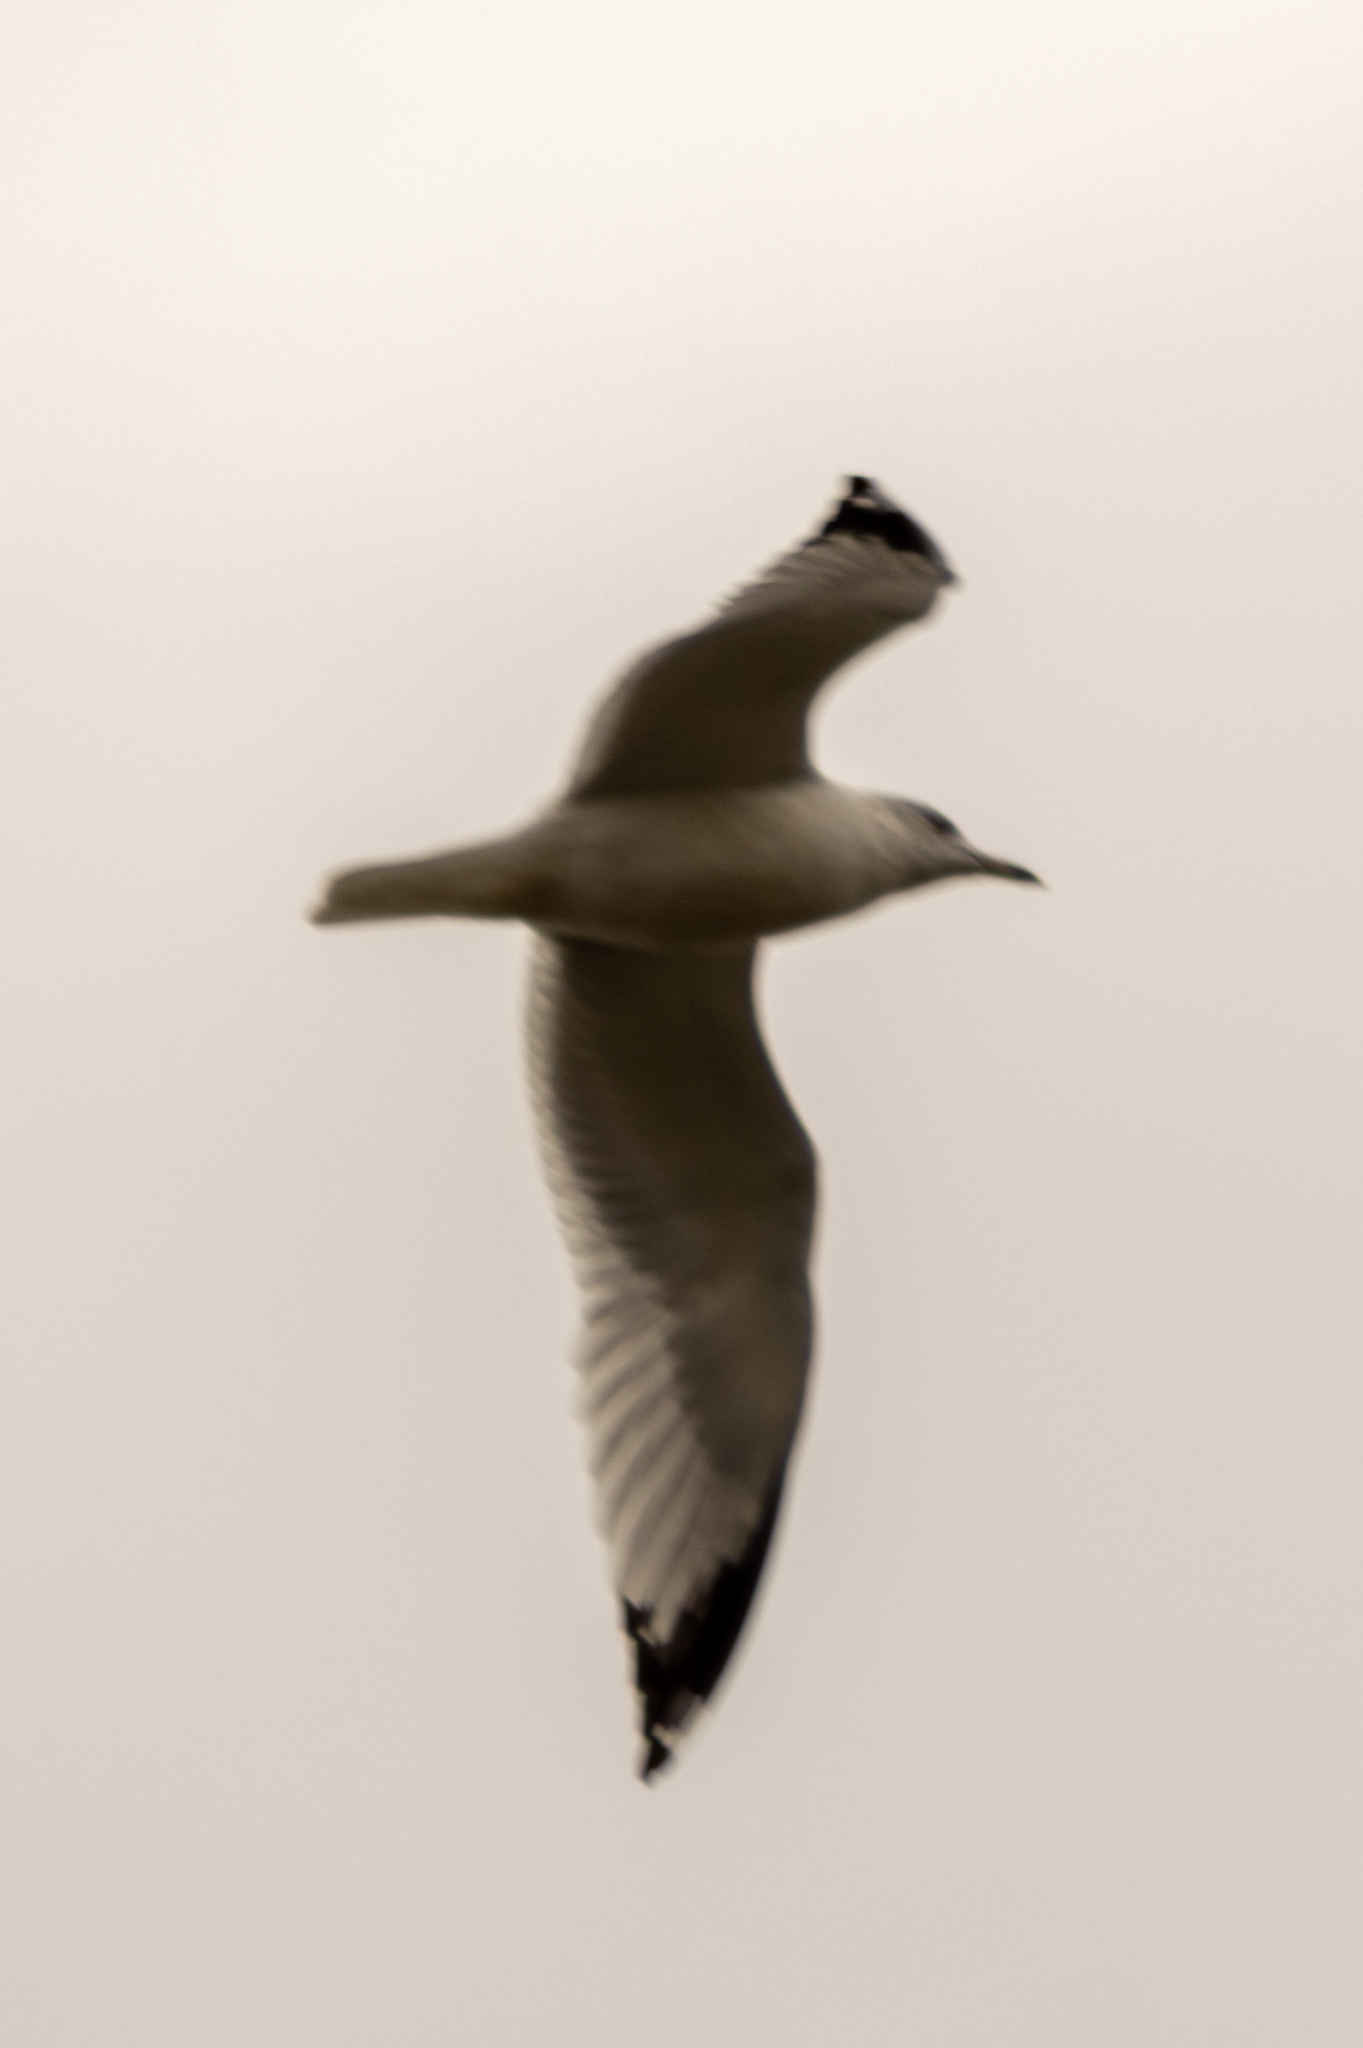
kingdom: Animalia
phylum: Chordata
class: Aves
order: Charadriiformes
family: Laridae
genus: Larus
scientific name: Larus delawarensis
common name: Ring-billed gull
